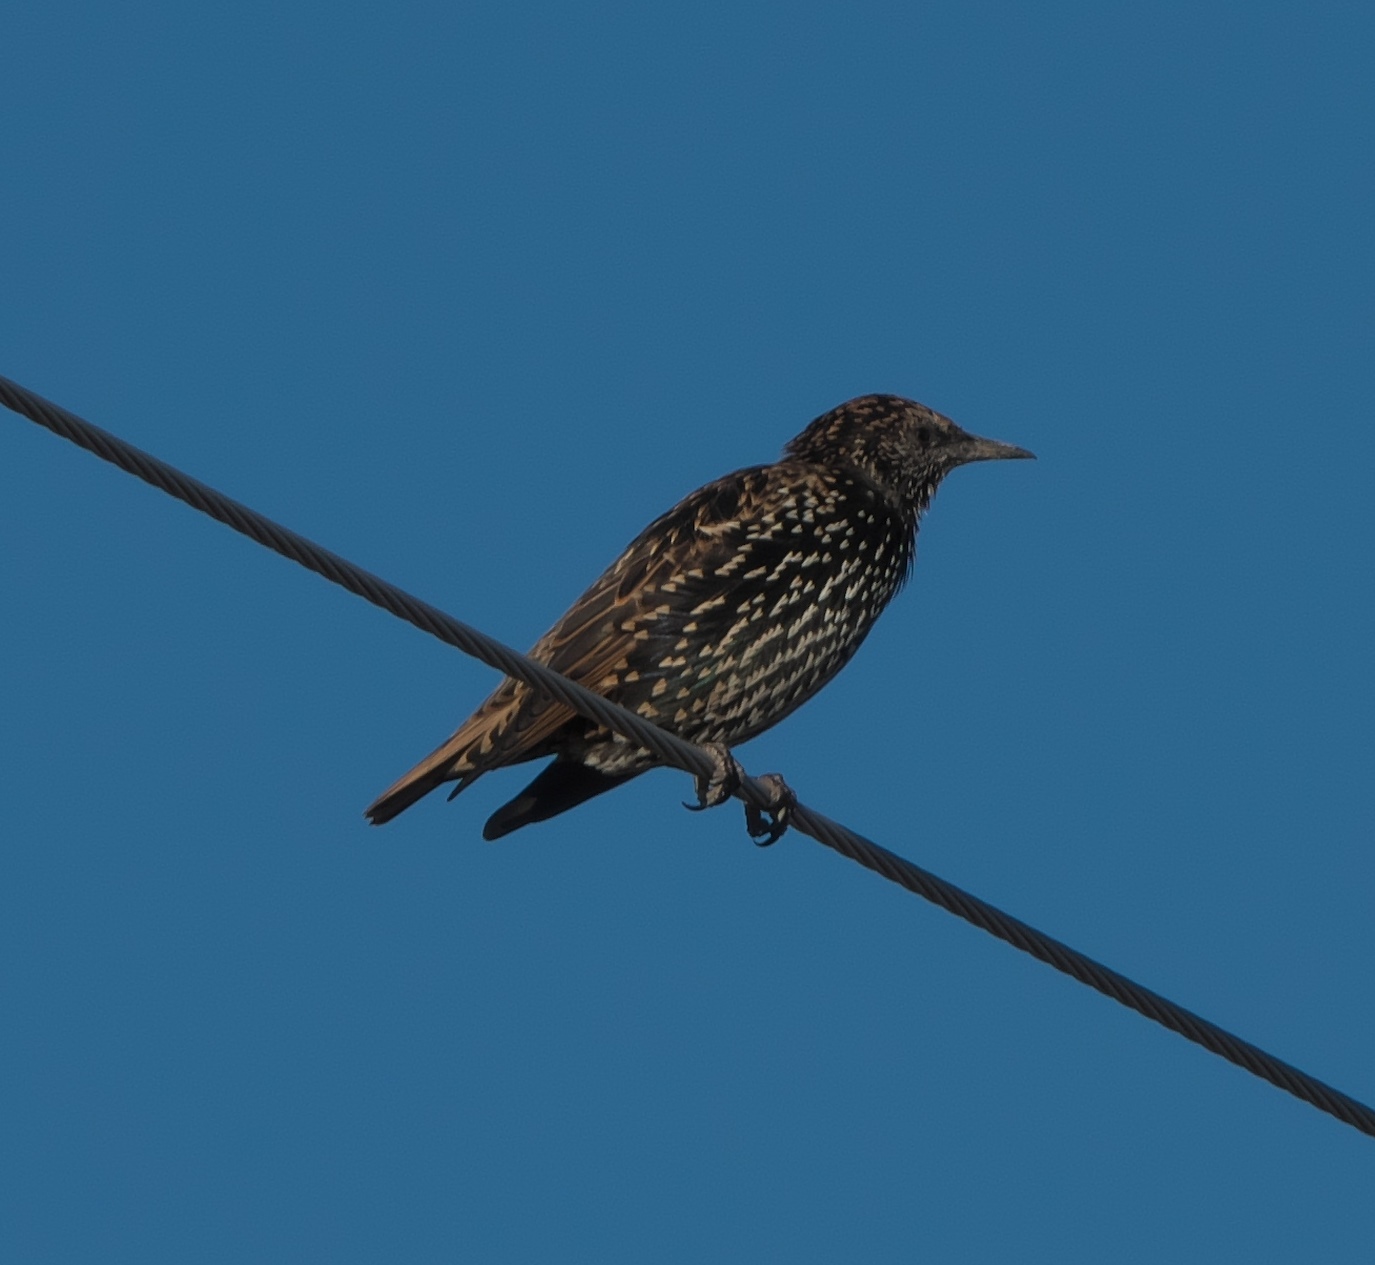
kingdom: Animalia
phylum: Chordata
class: Aves
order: Passeriformes
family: Sturnidae
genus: Sturnus
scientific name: Sturnus vulgaris
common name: Common starling
